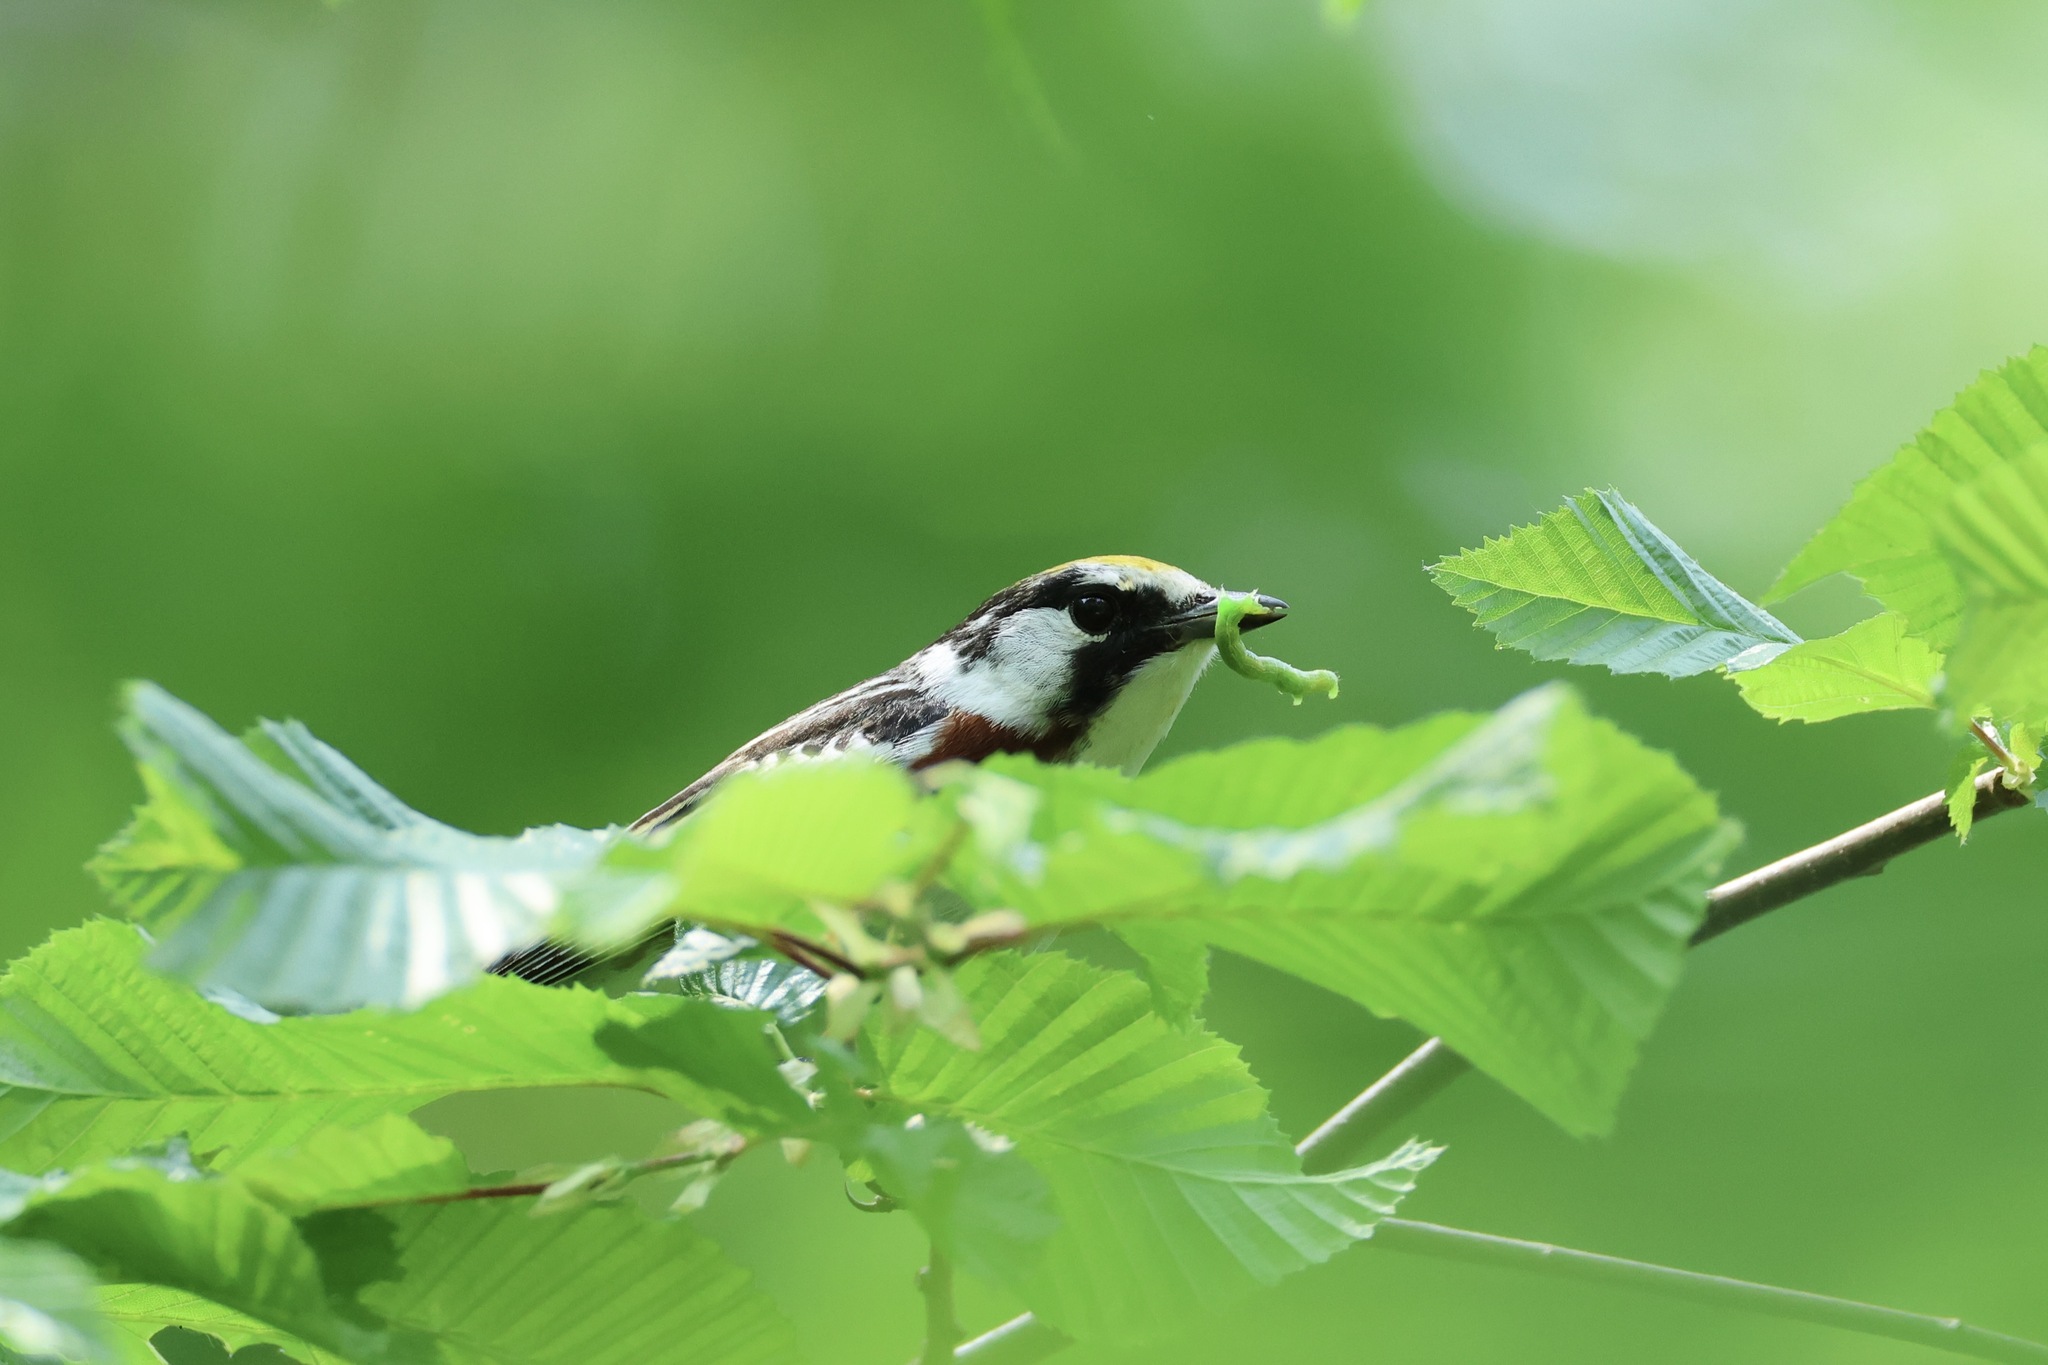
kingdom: Animalia
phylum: Chordata
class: Aves
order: Passeriformes
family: Parulidae
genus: Setophaga
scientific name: Setophaga pensylvanica
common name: Chestnut-sided warbler
